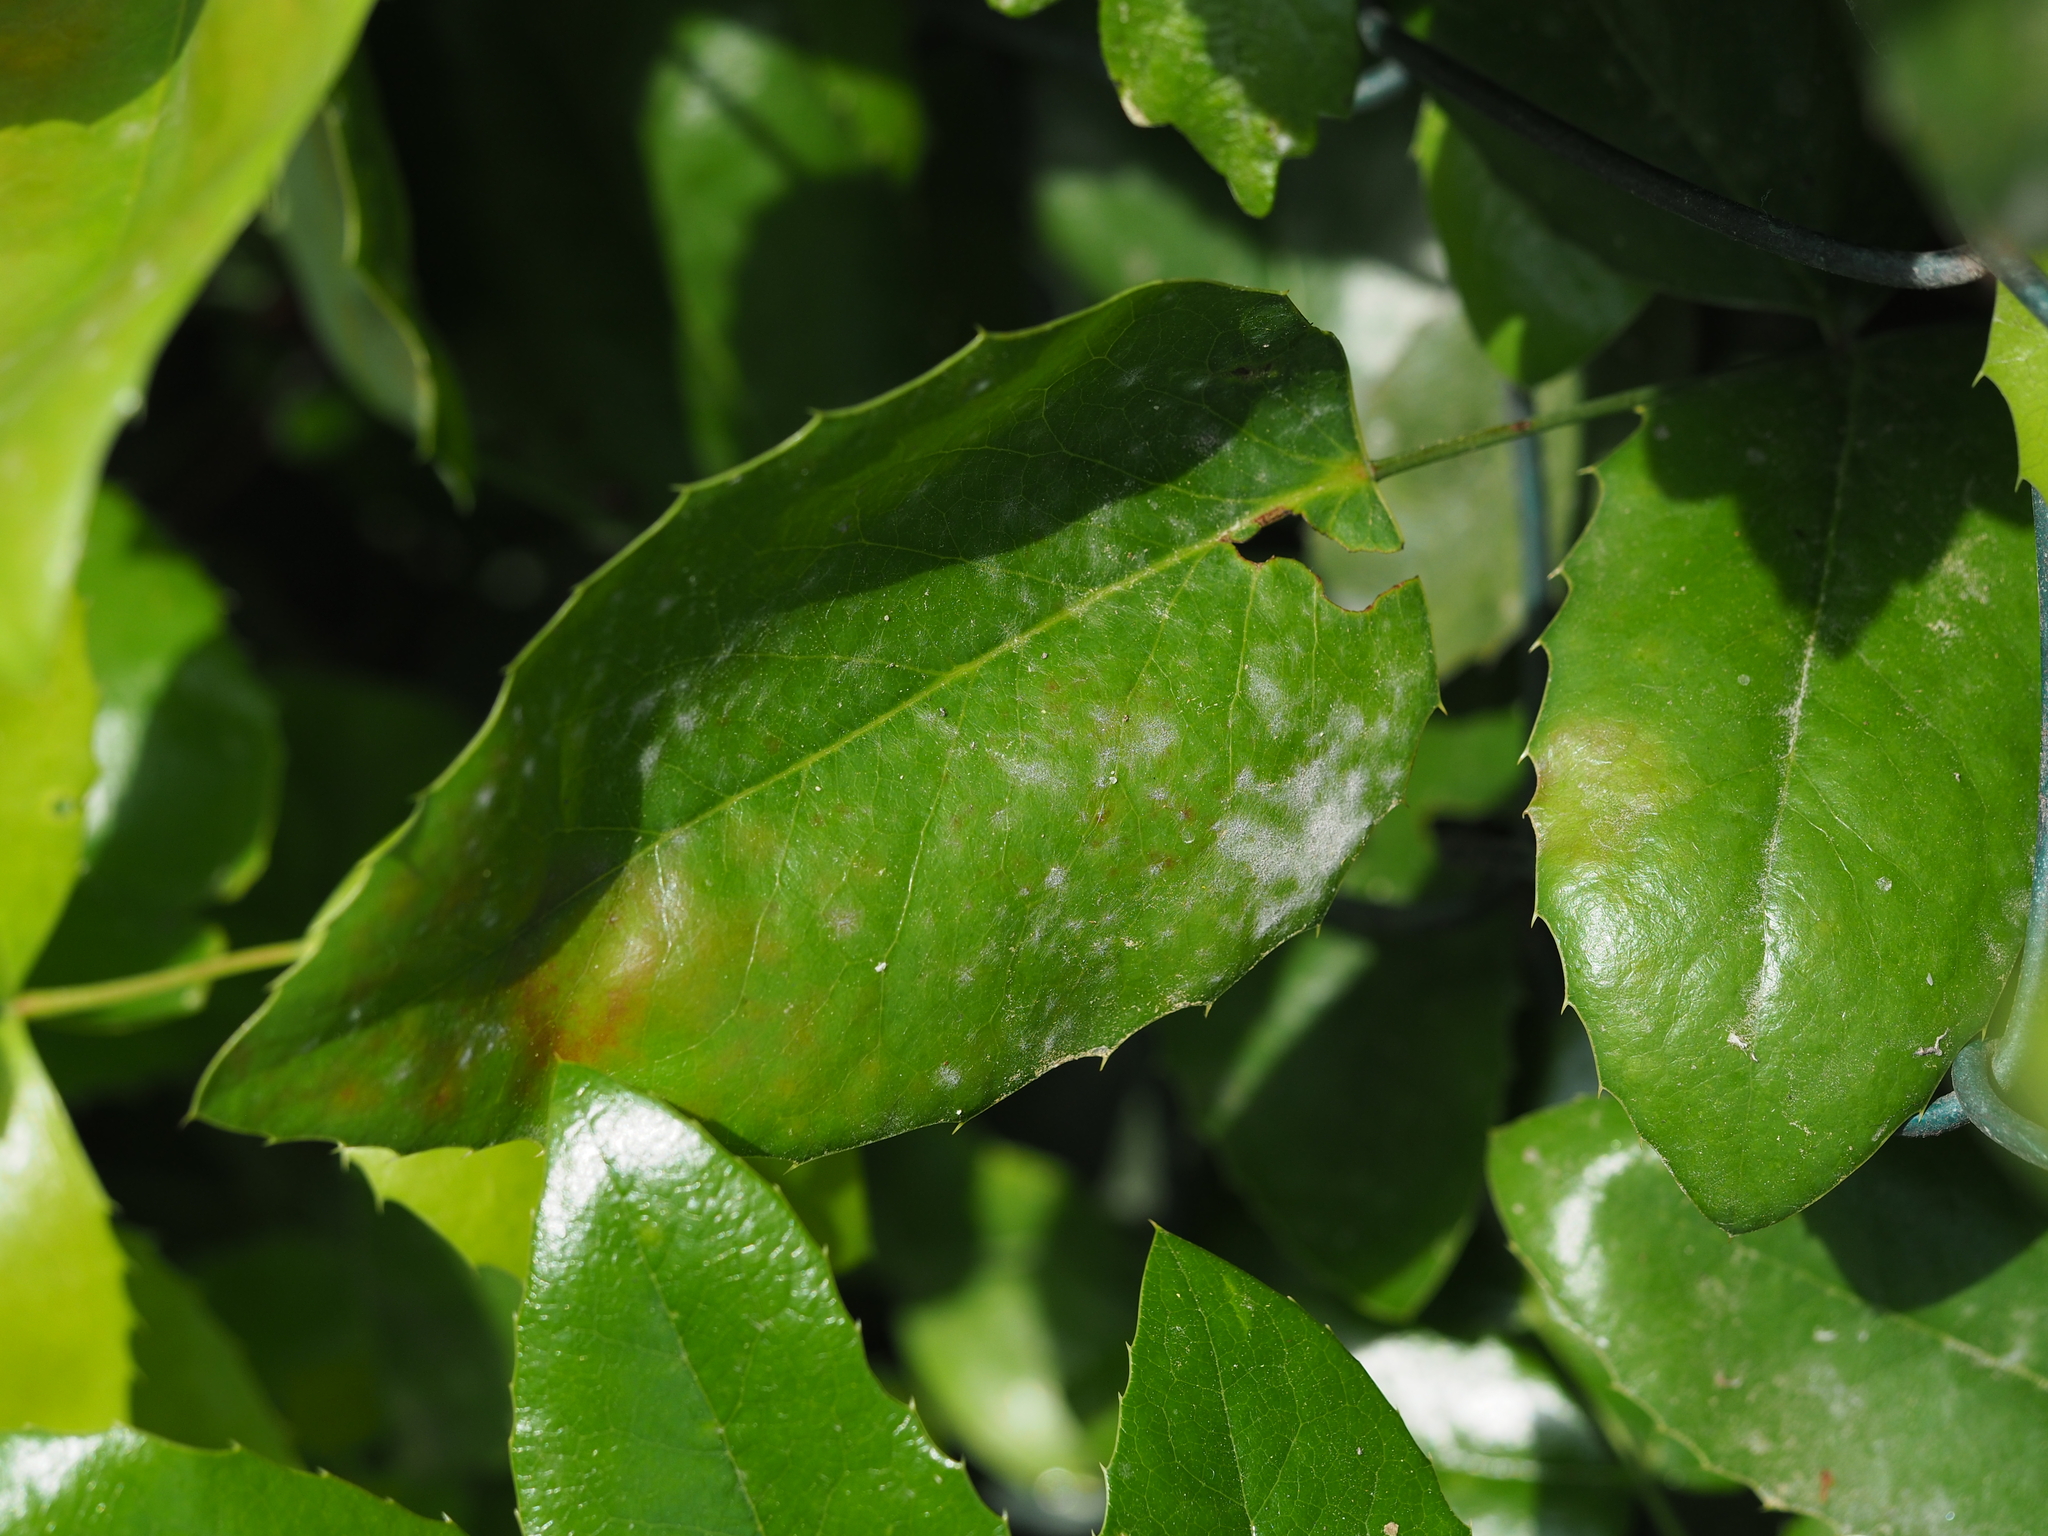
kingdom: Fungi
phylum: Ascomycota
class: Leotiomycetes
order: Helotiales
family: Erysiphaceae
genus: Erysiphe
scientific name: Erysiphe berberidis
